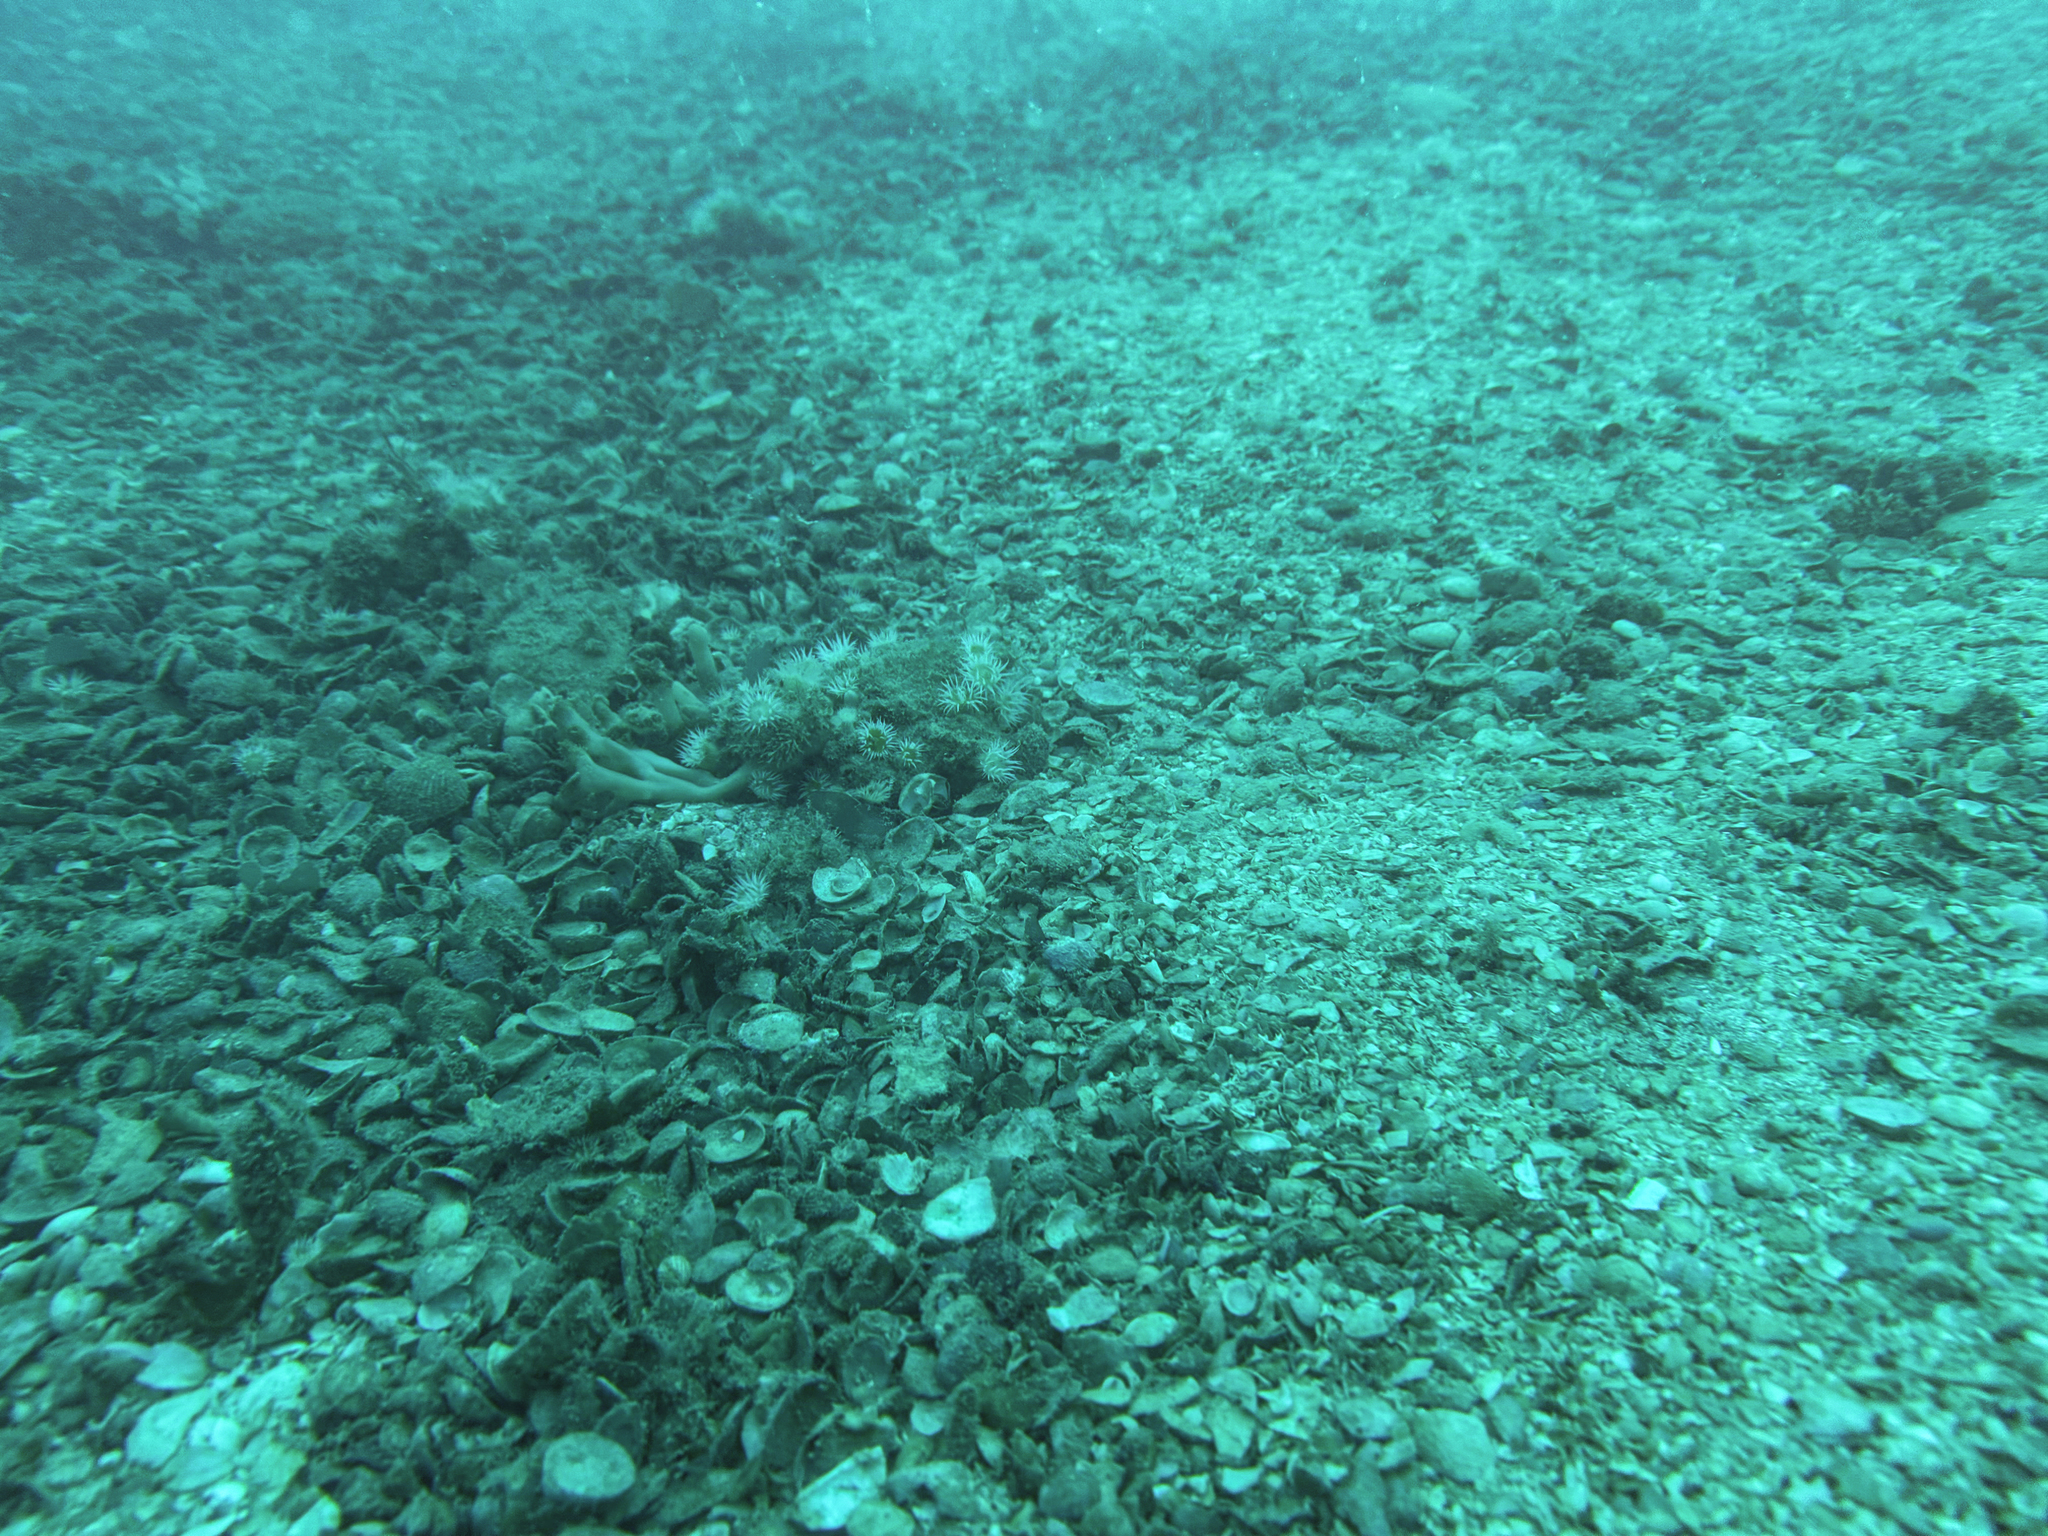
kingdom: Animalia
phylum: Mollusca
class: Bivalvia
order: Venerida
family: Veneridae
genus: Tawera
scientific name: Tawera spissa
